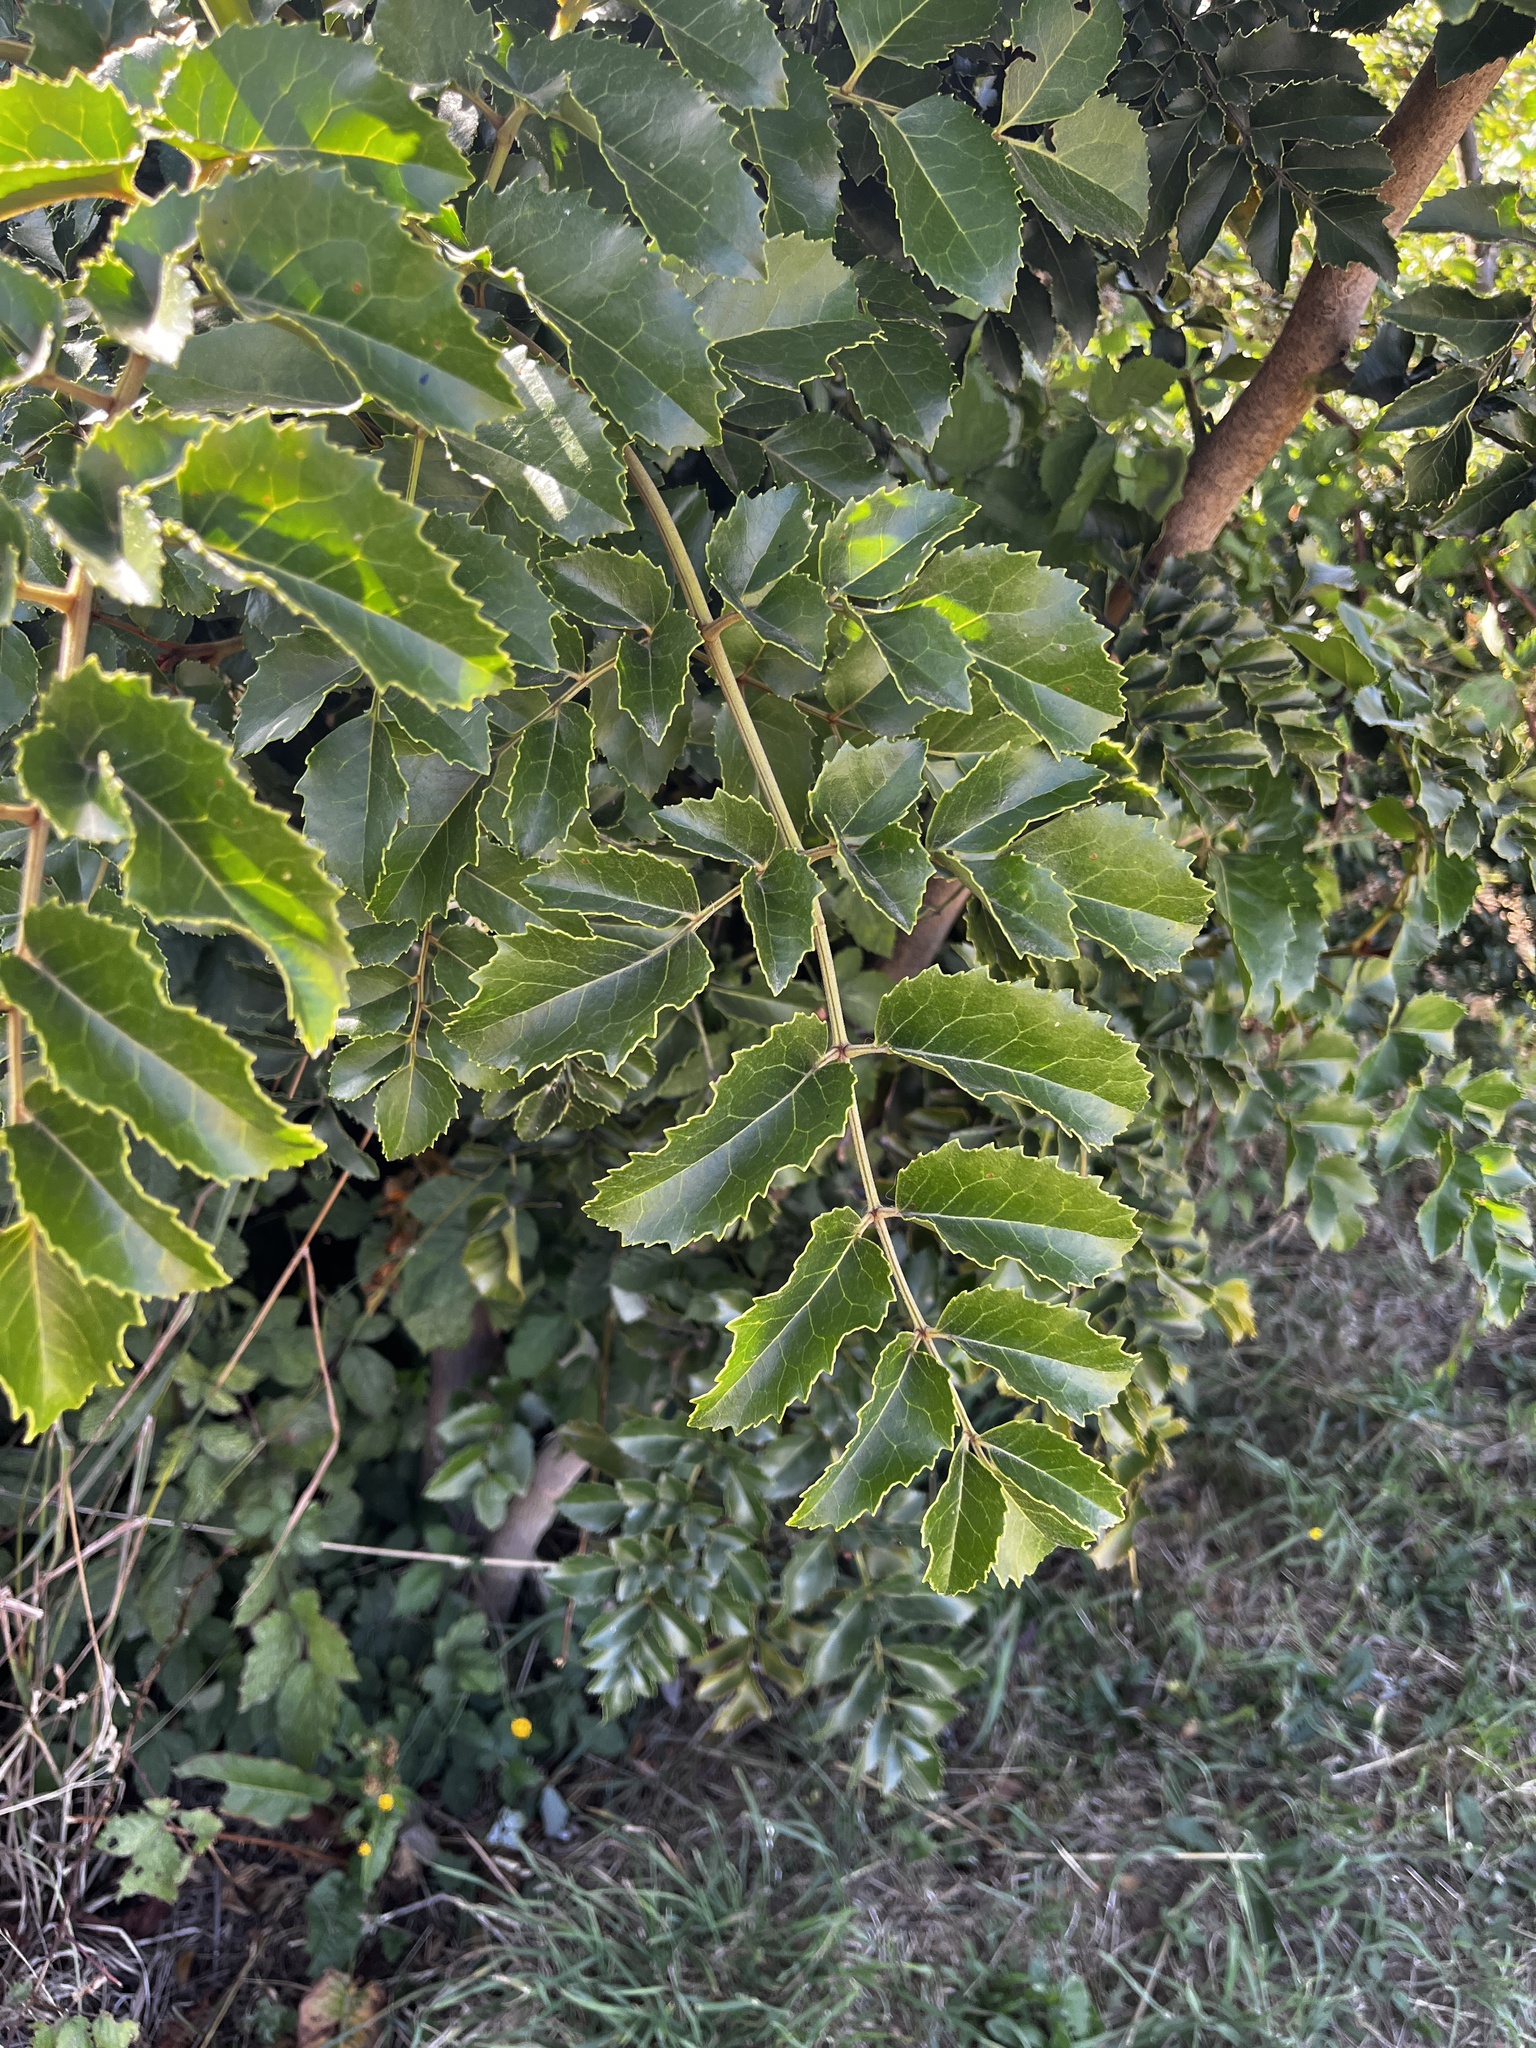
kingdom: Plantae
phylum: Tracheophyta
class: Magnoliopsida
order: Proteales
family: Proteaceae
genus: Gevuina
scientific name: Gevuina avellana
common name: Chilean hazel
